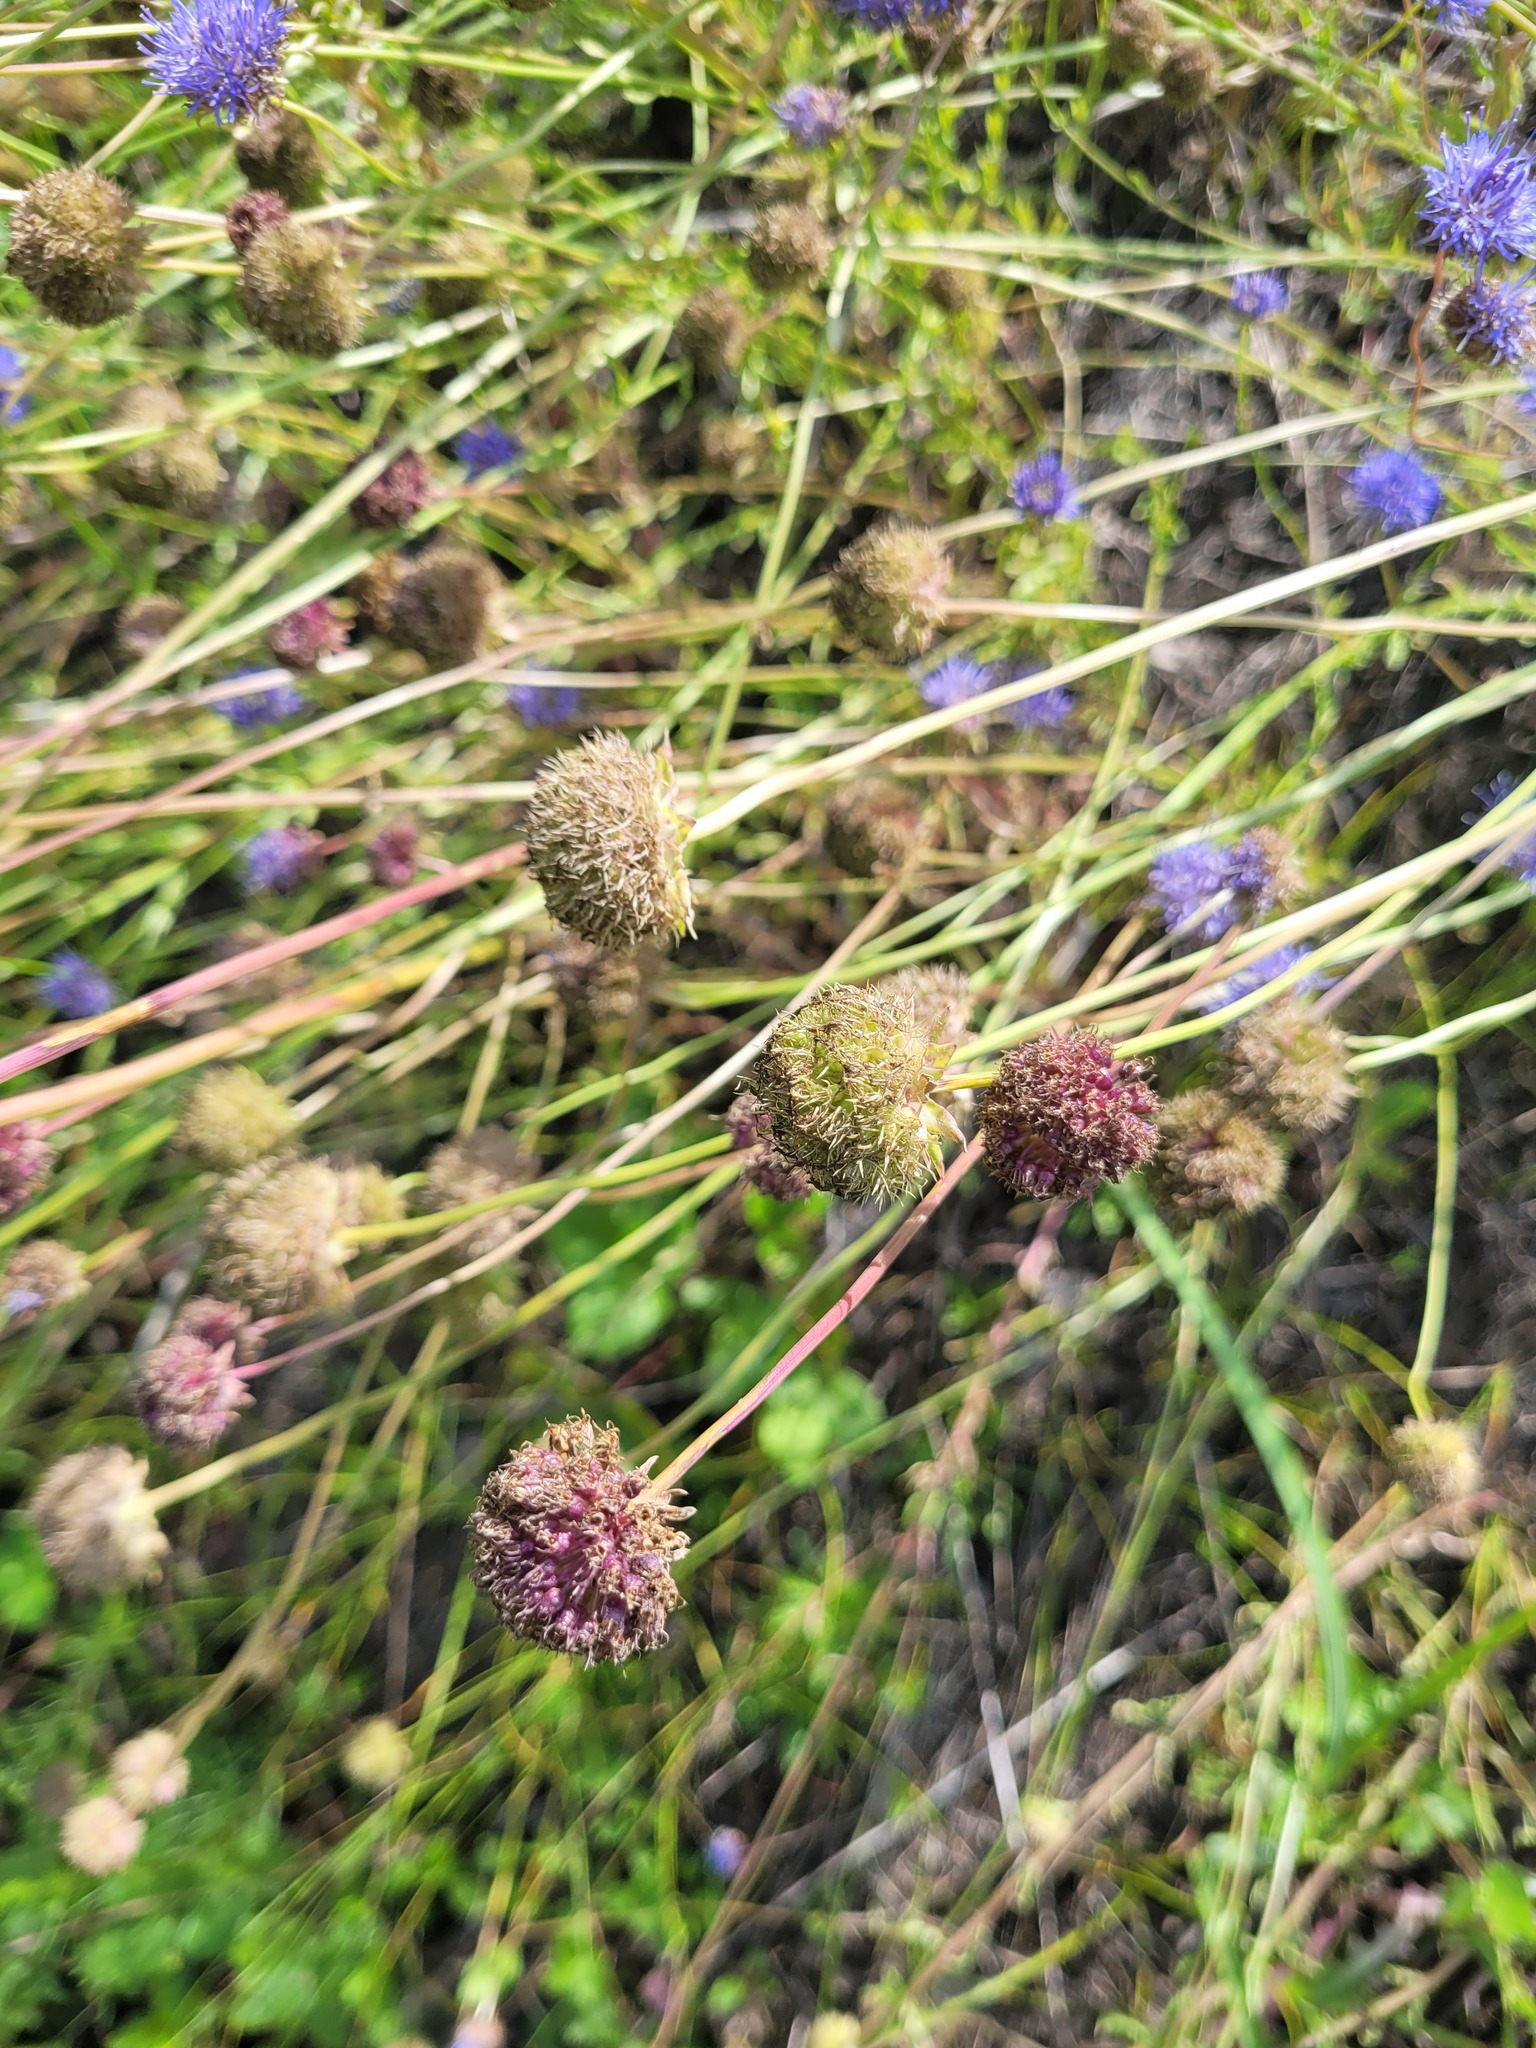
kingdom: Plantae
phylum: Tracheophyta
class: Magnoliopsida
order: Asterales
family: Campanulaceae
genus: Jasione
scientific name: Jasione montana
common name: Sheep's-bit
